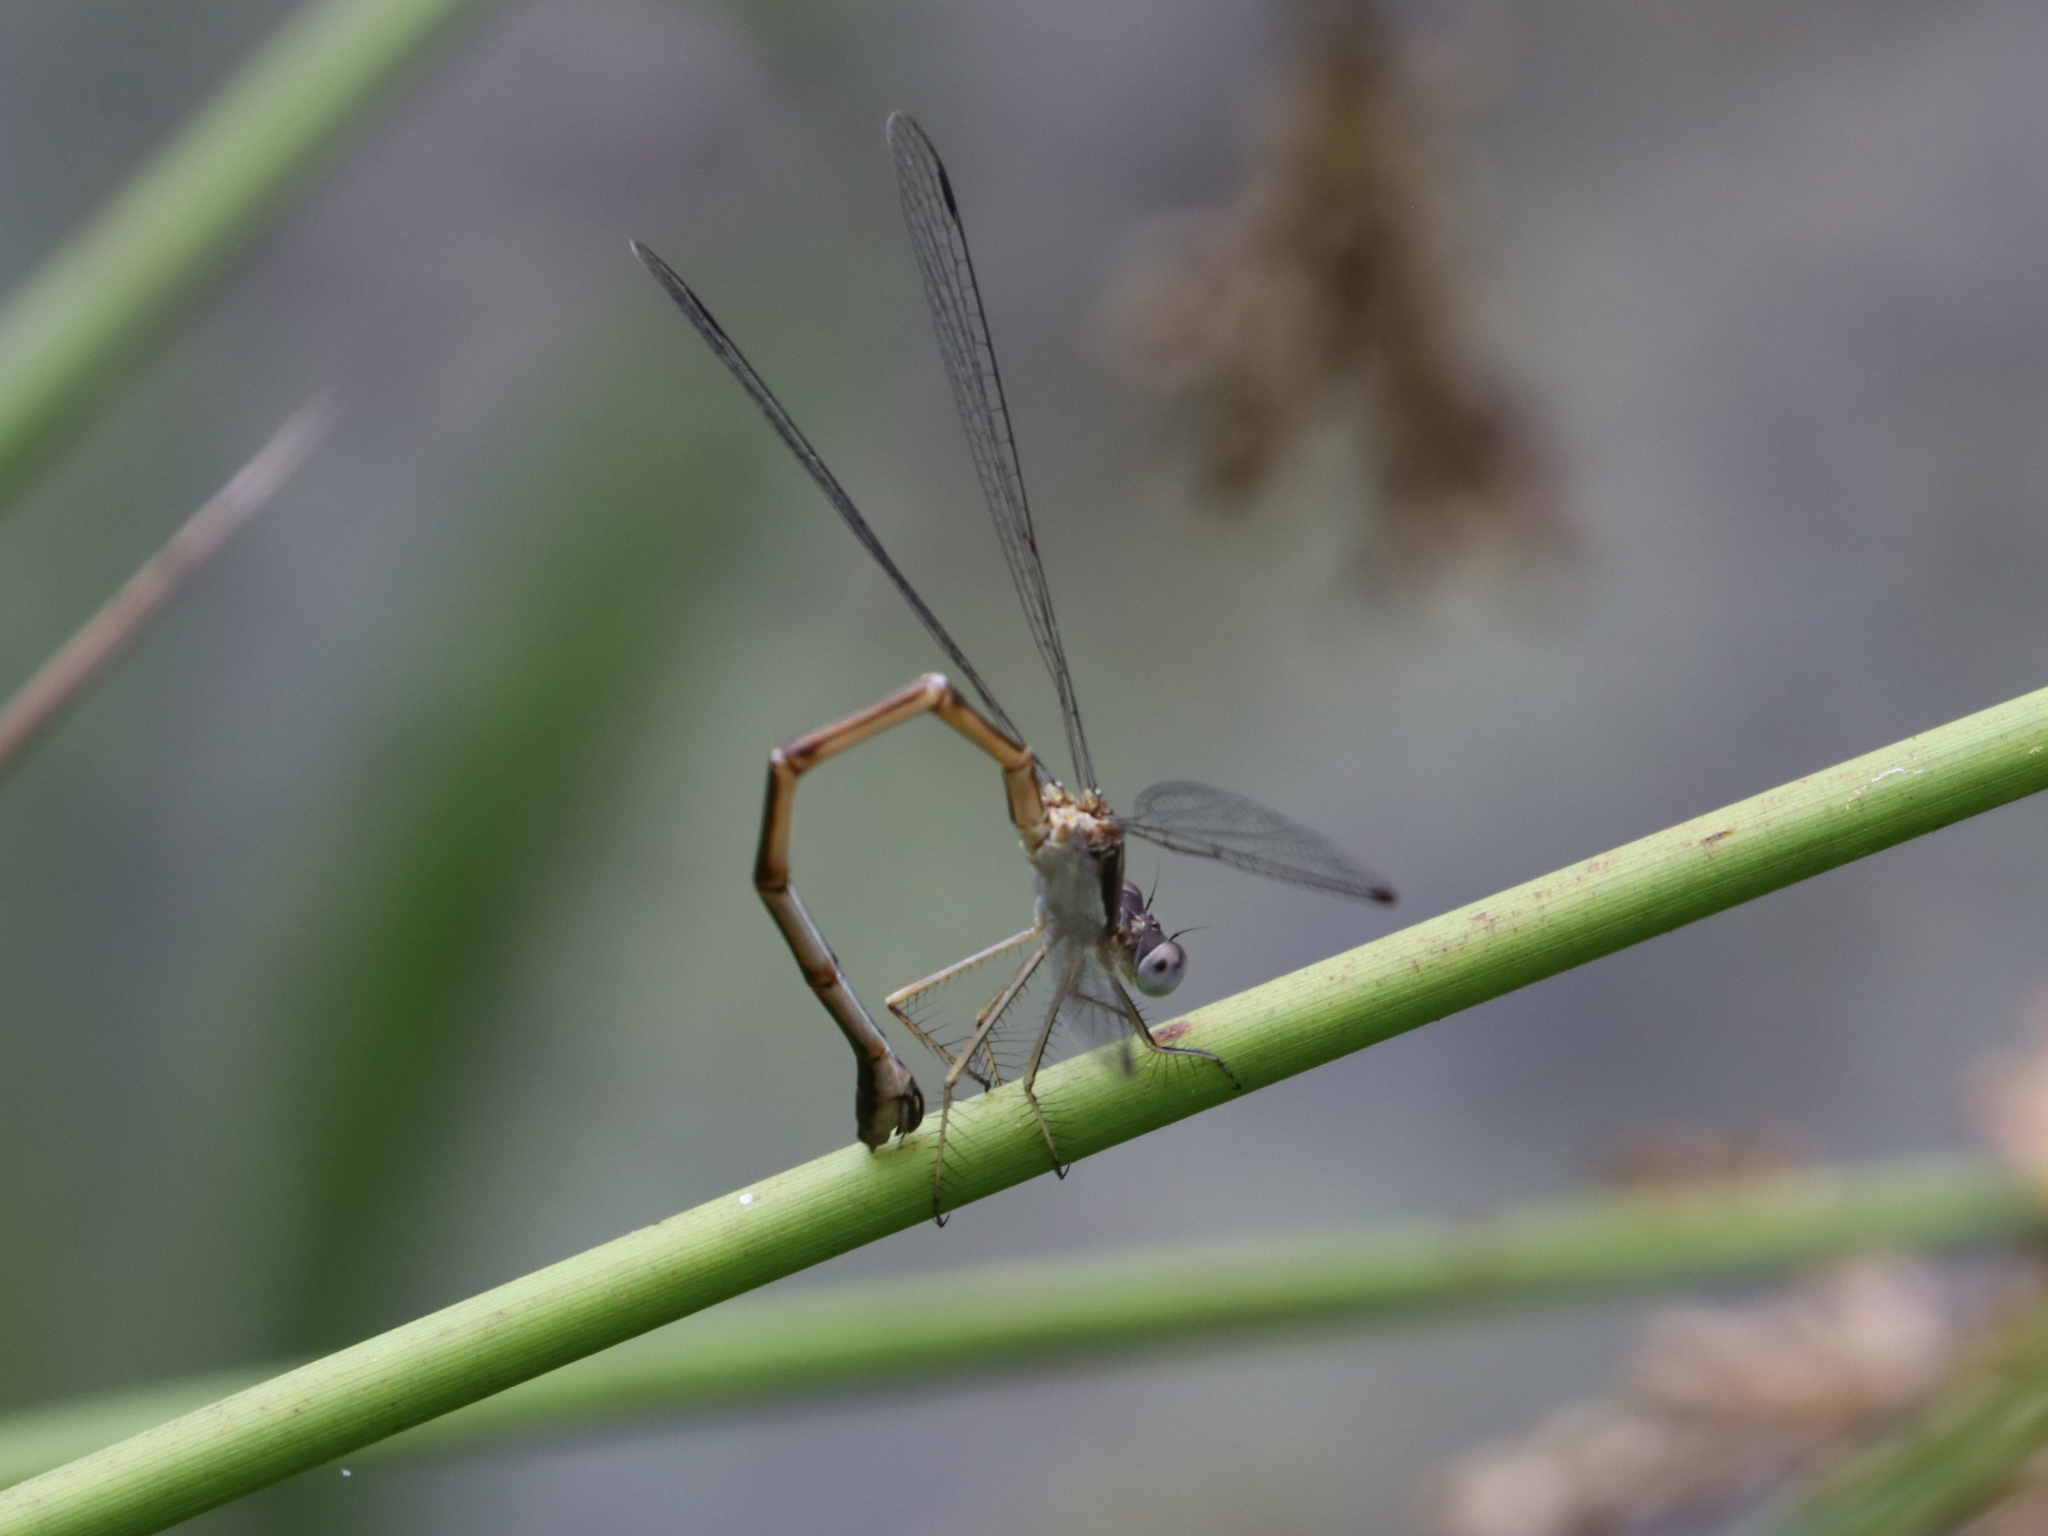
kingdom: Animalia
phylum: Arthropoda
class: Insecta
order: Odonata
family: Lestidae
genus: Lestes
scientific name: Lestes forcipatus
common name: Sweetflag spreadwing
